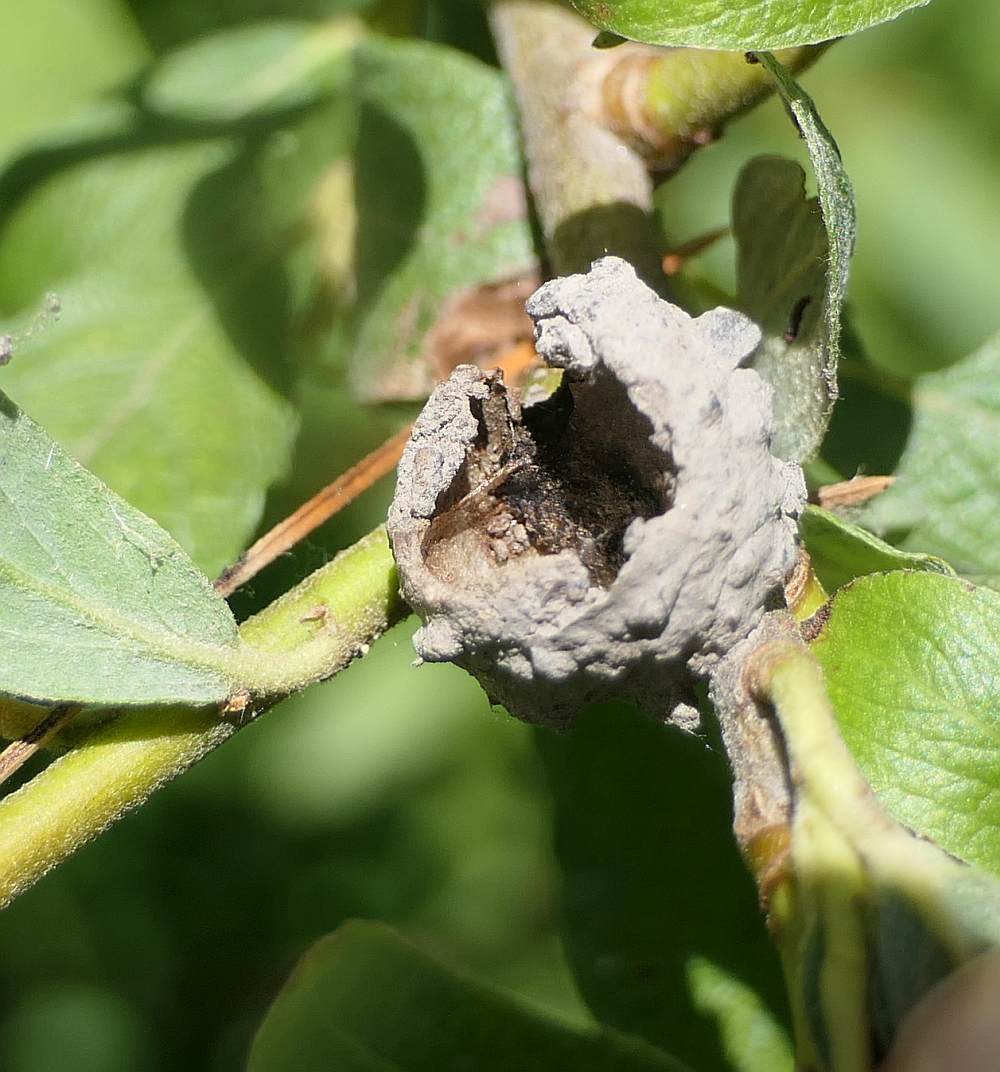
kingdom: Animalia
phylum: Arthropoda
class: Insecta
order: Hymenoptera
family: Vespidae
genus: Eumenes
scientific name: Eumenes
